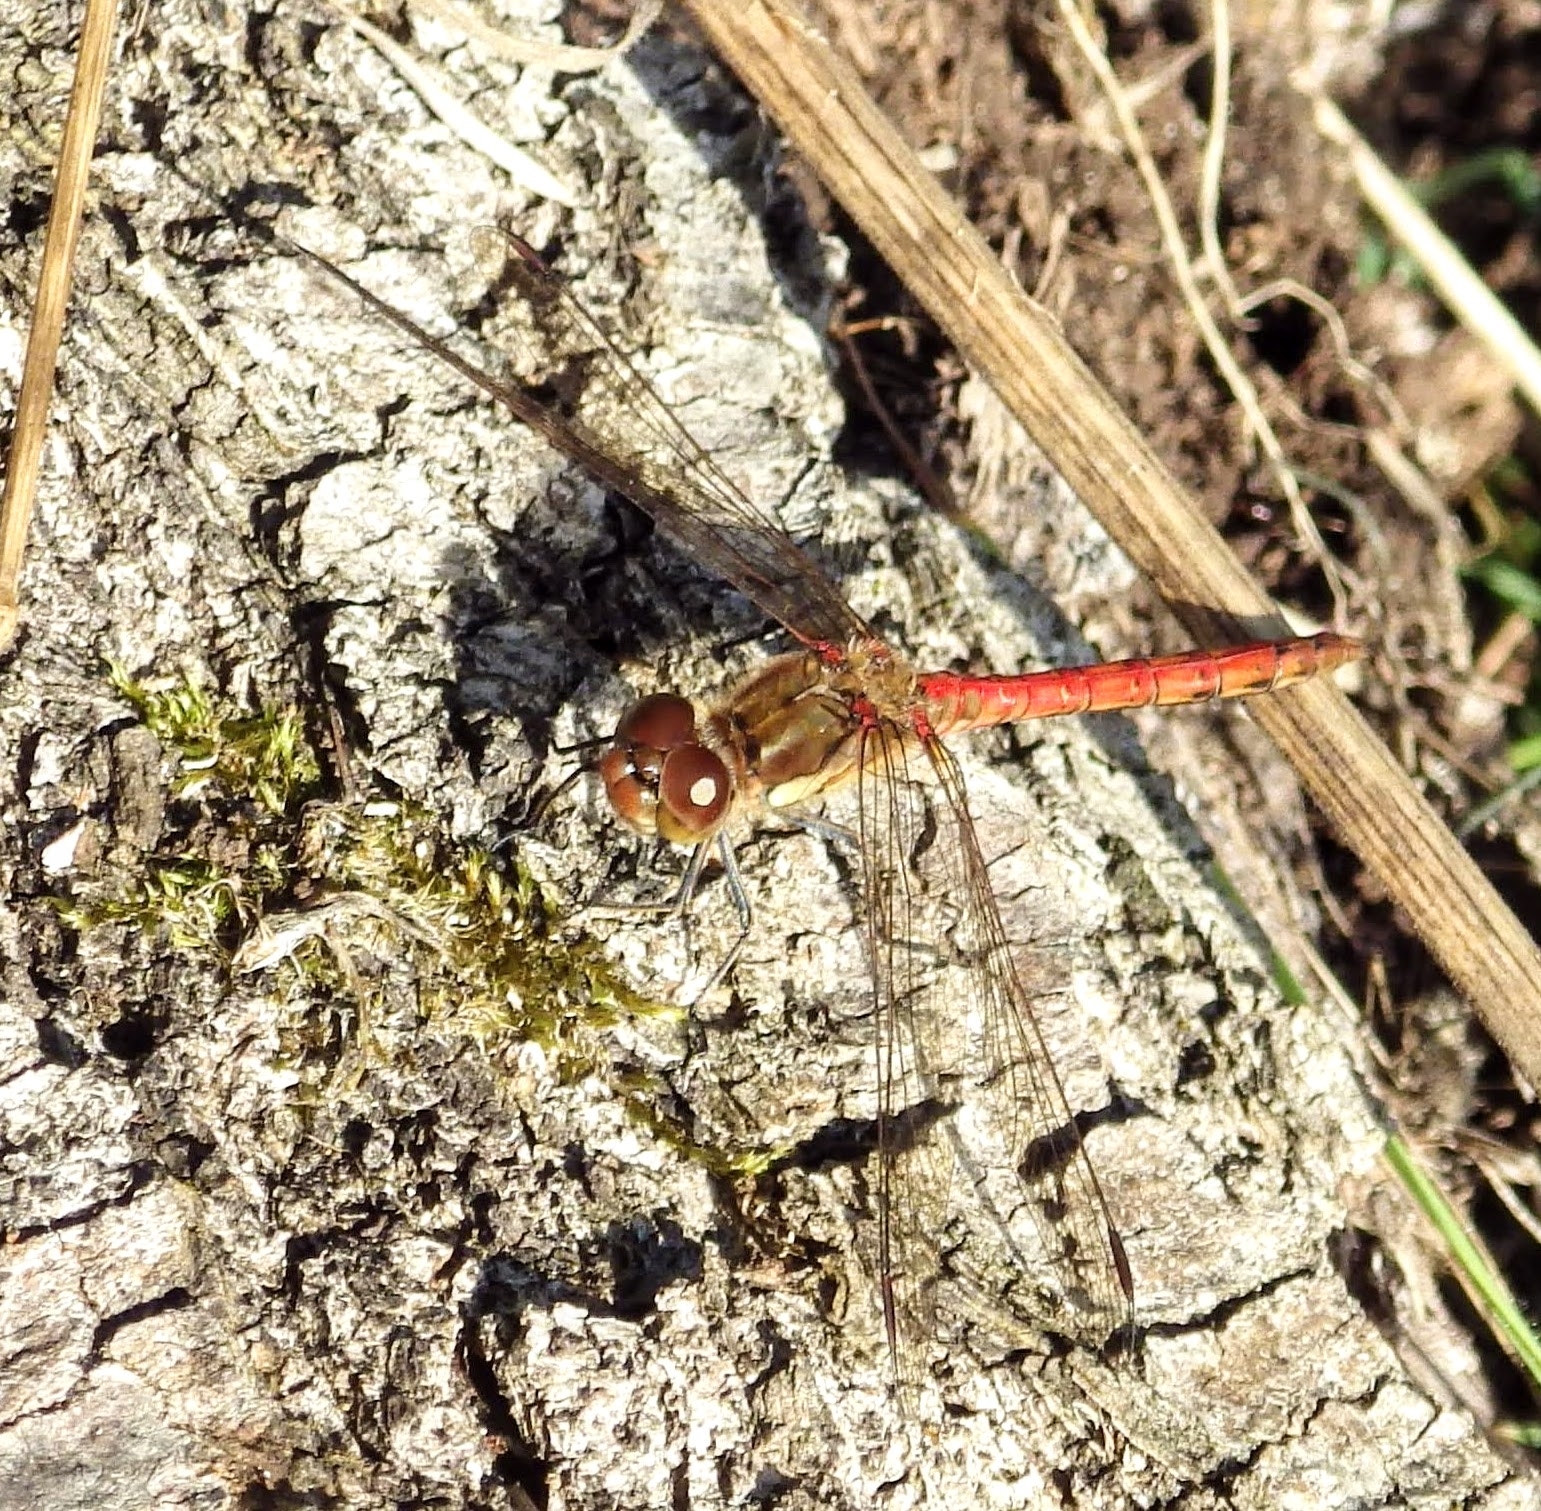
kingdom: Animalia
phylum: Arthropoda
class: Insecta
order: Odonata
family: Libellulidae
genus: Sympetrum
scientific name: Sympetrum striolatum
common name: Common darter
